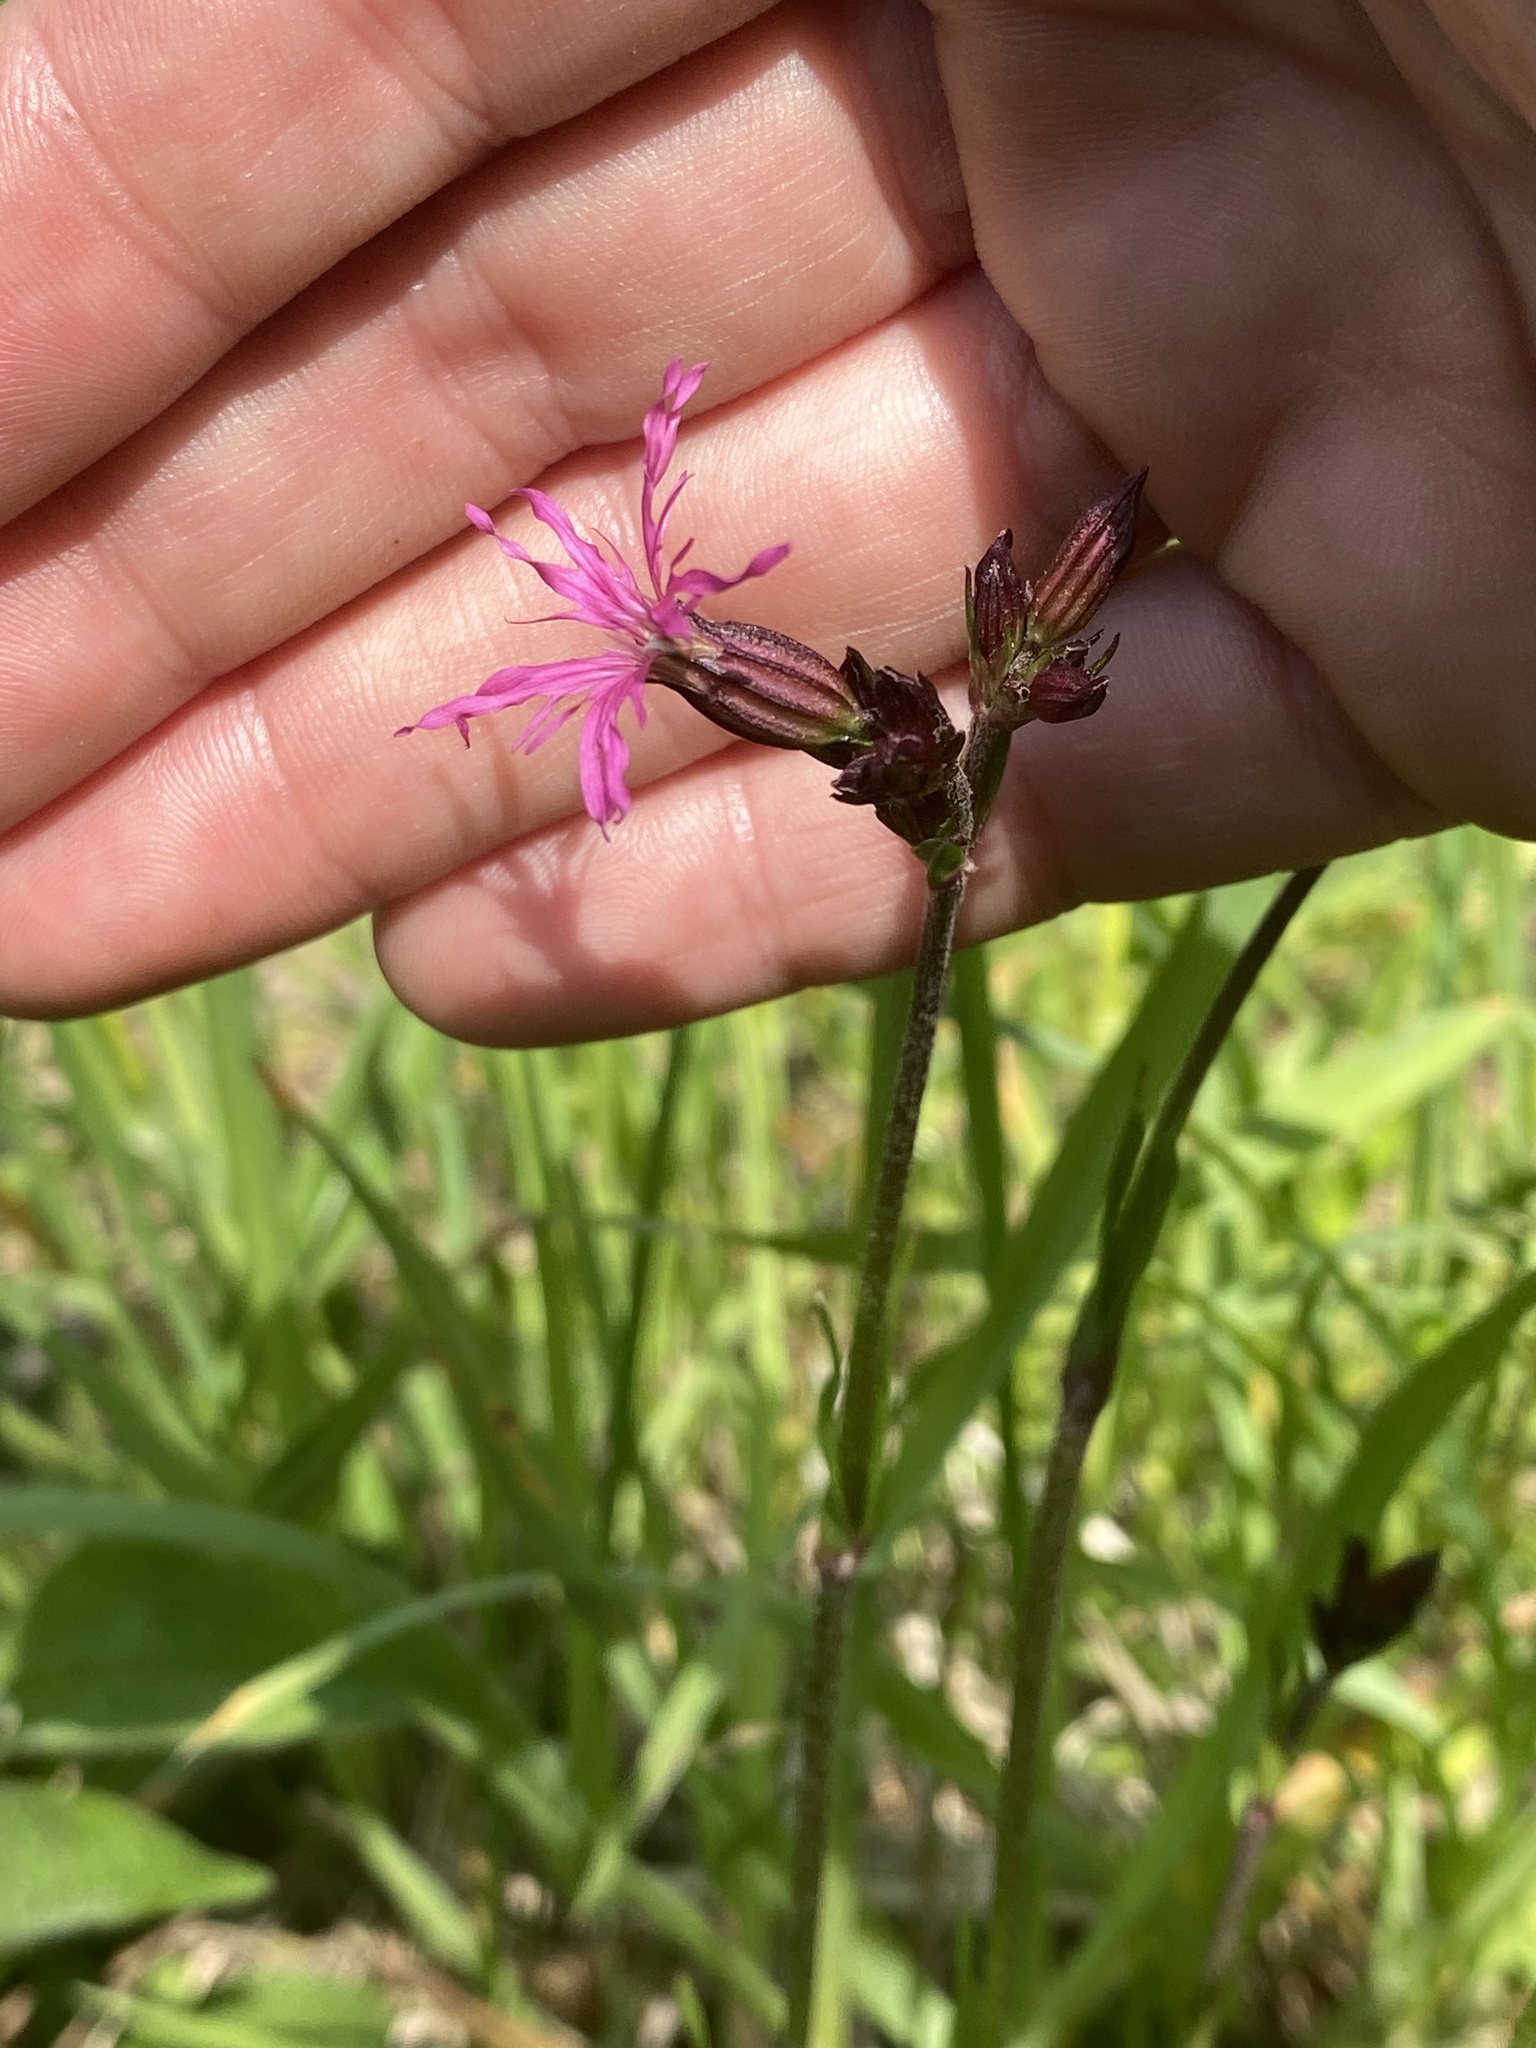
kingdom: Plantae
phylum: Tracheophyta
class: Magnoliopsida
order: Caryophyllales
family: Caryophyllaceae
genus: Silene
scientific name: Silene flos-cuculi
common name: Ragged-robin
